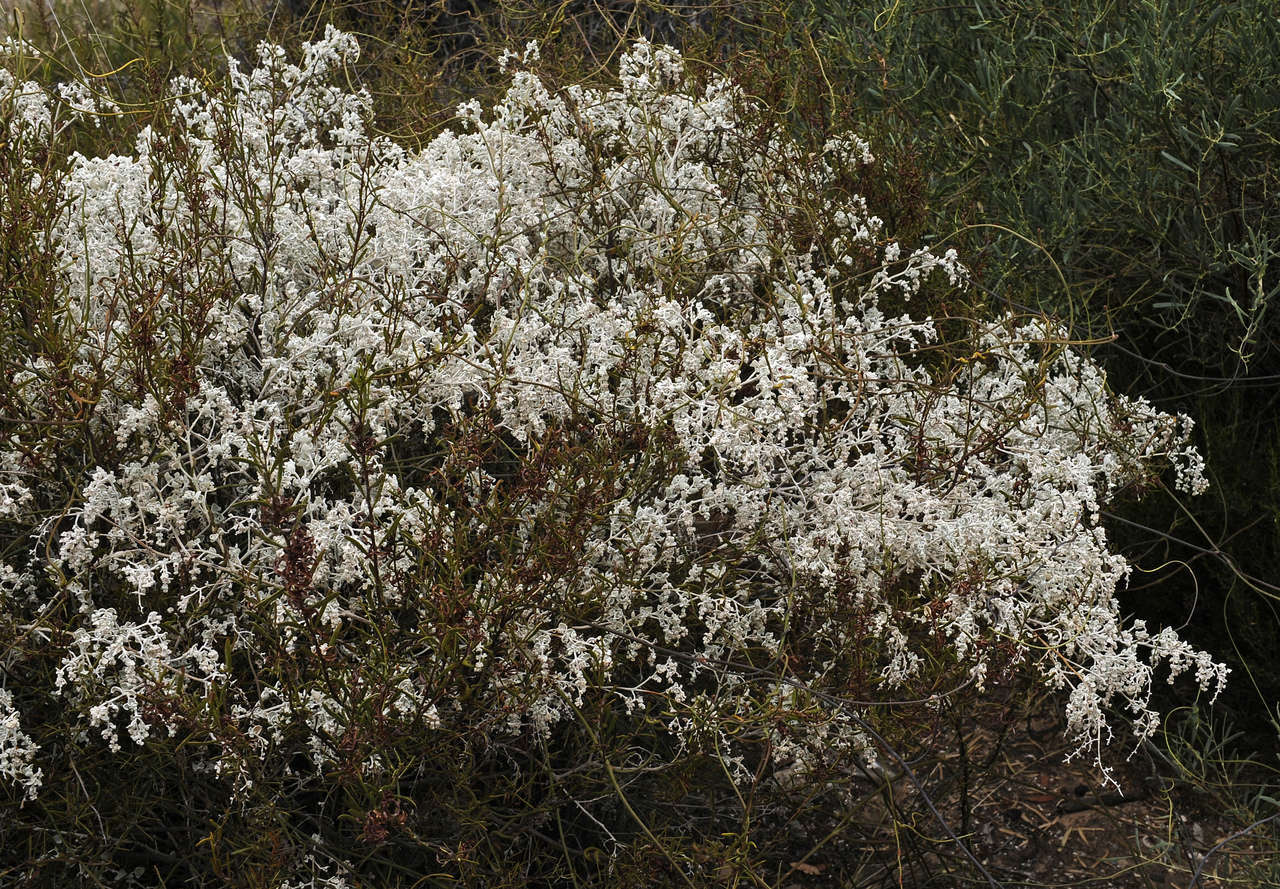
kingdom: Plantae
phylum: Tracheophyta
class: Magnoliopsida
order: Caryophyllales
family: Amaranthaceae
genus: Chenopodium
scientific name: Chenopodium curvispicatum
